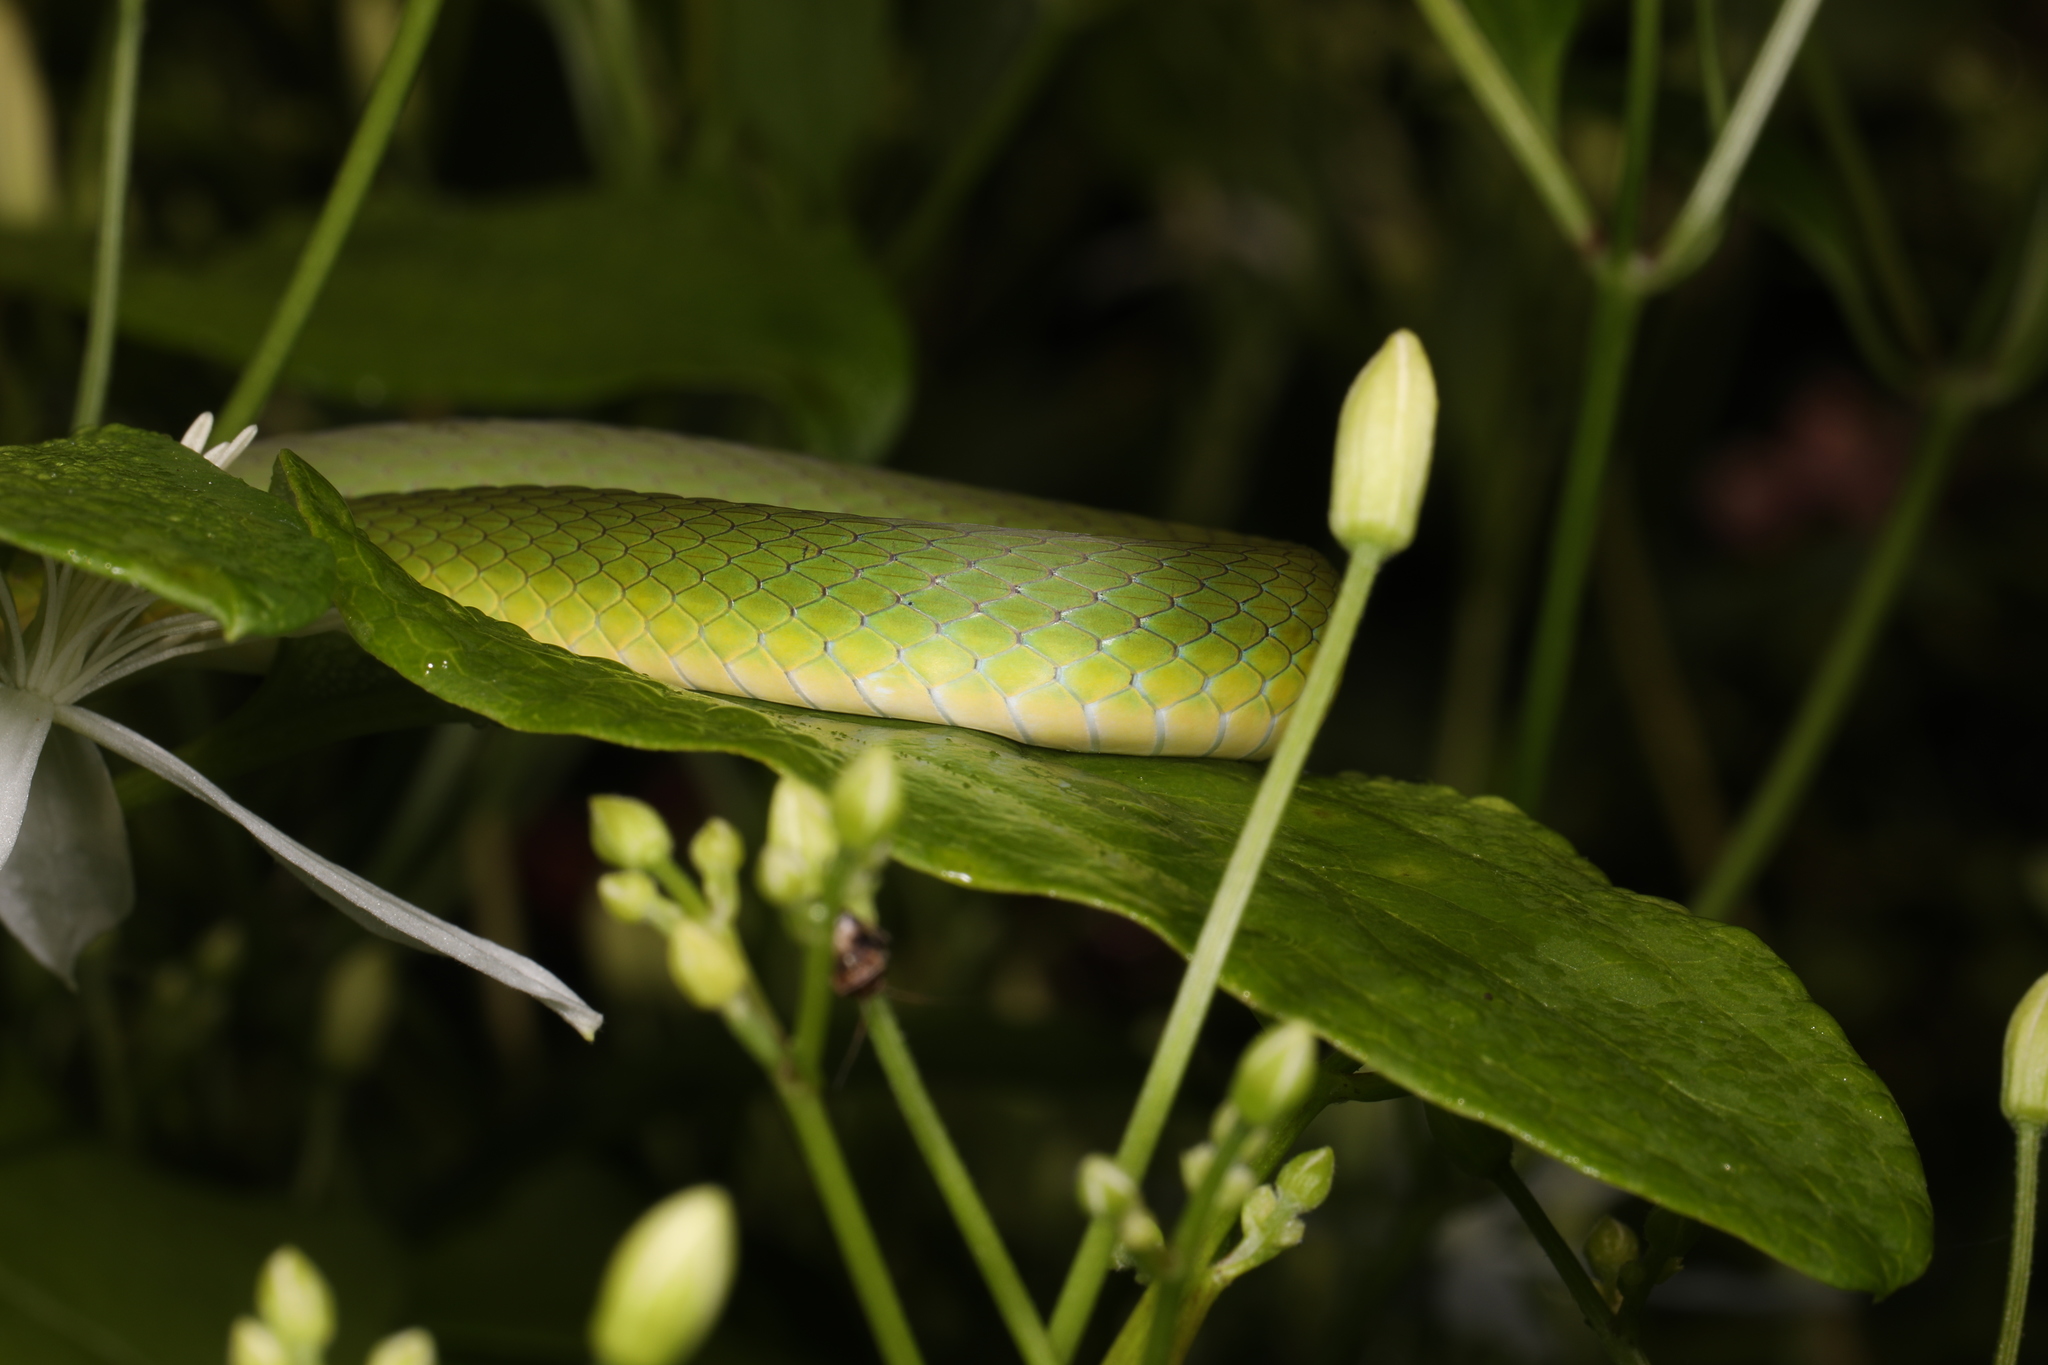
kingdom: Animalia
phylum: Chordata
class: Squamata
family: Colubridae
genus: Opheodrys
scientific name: Opheodrys aestivus
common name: Rough greensnake
